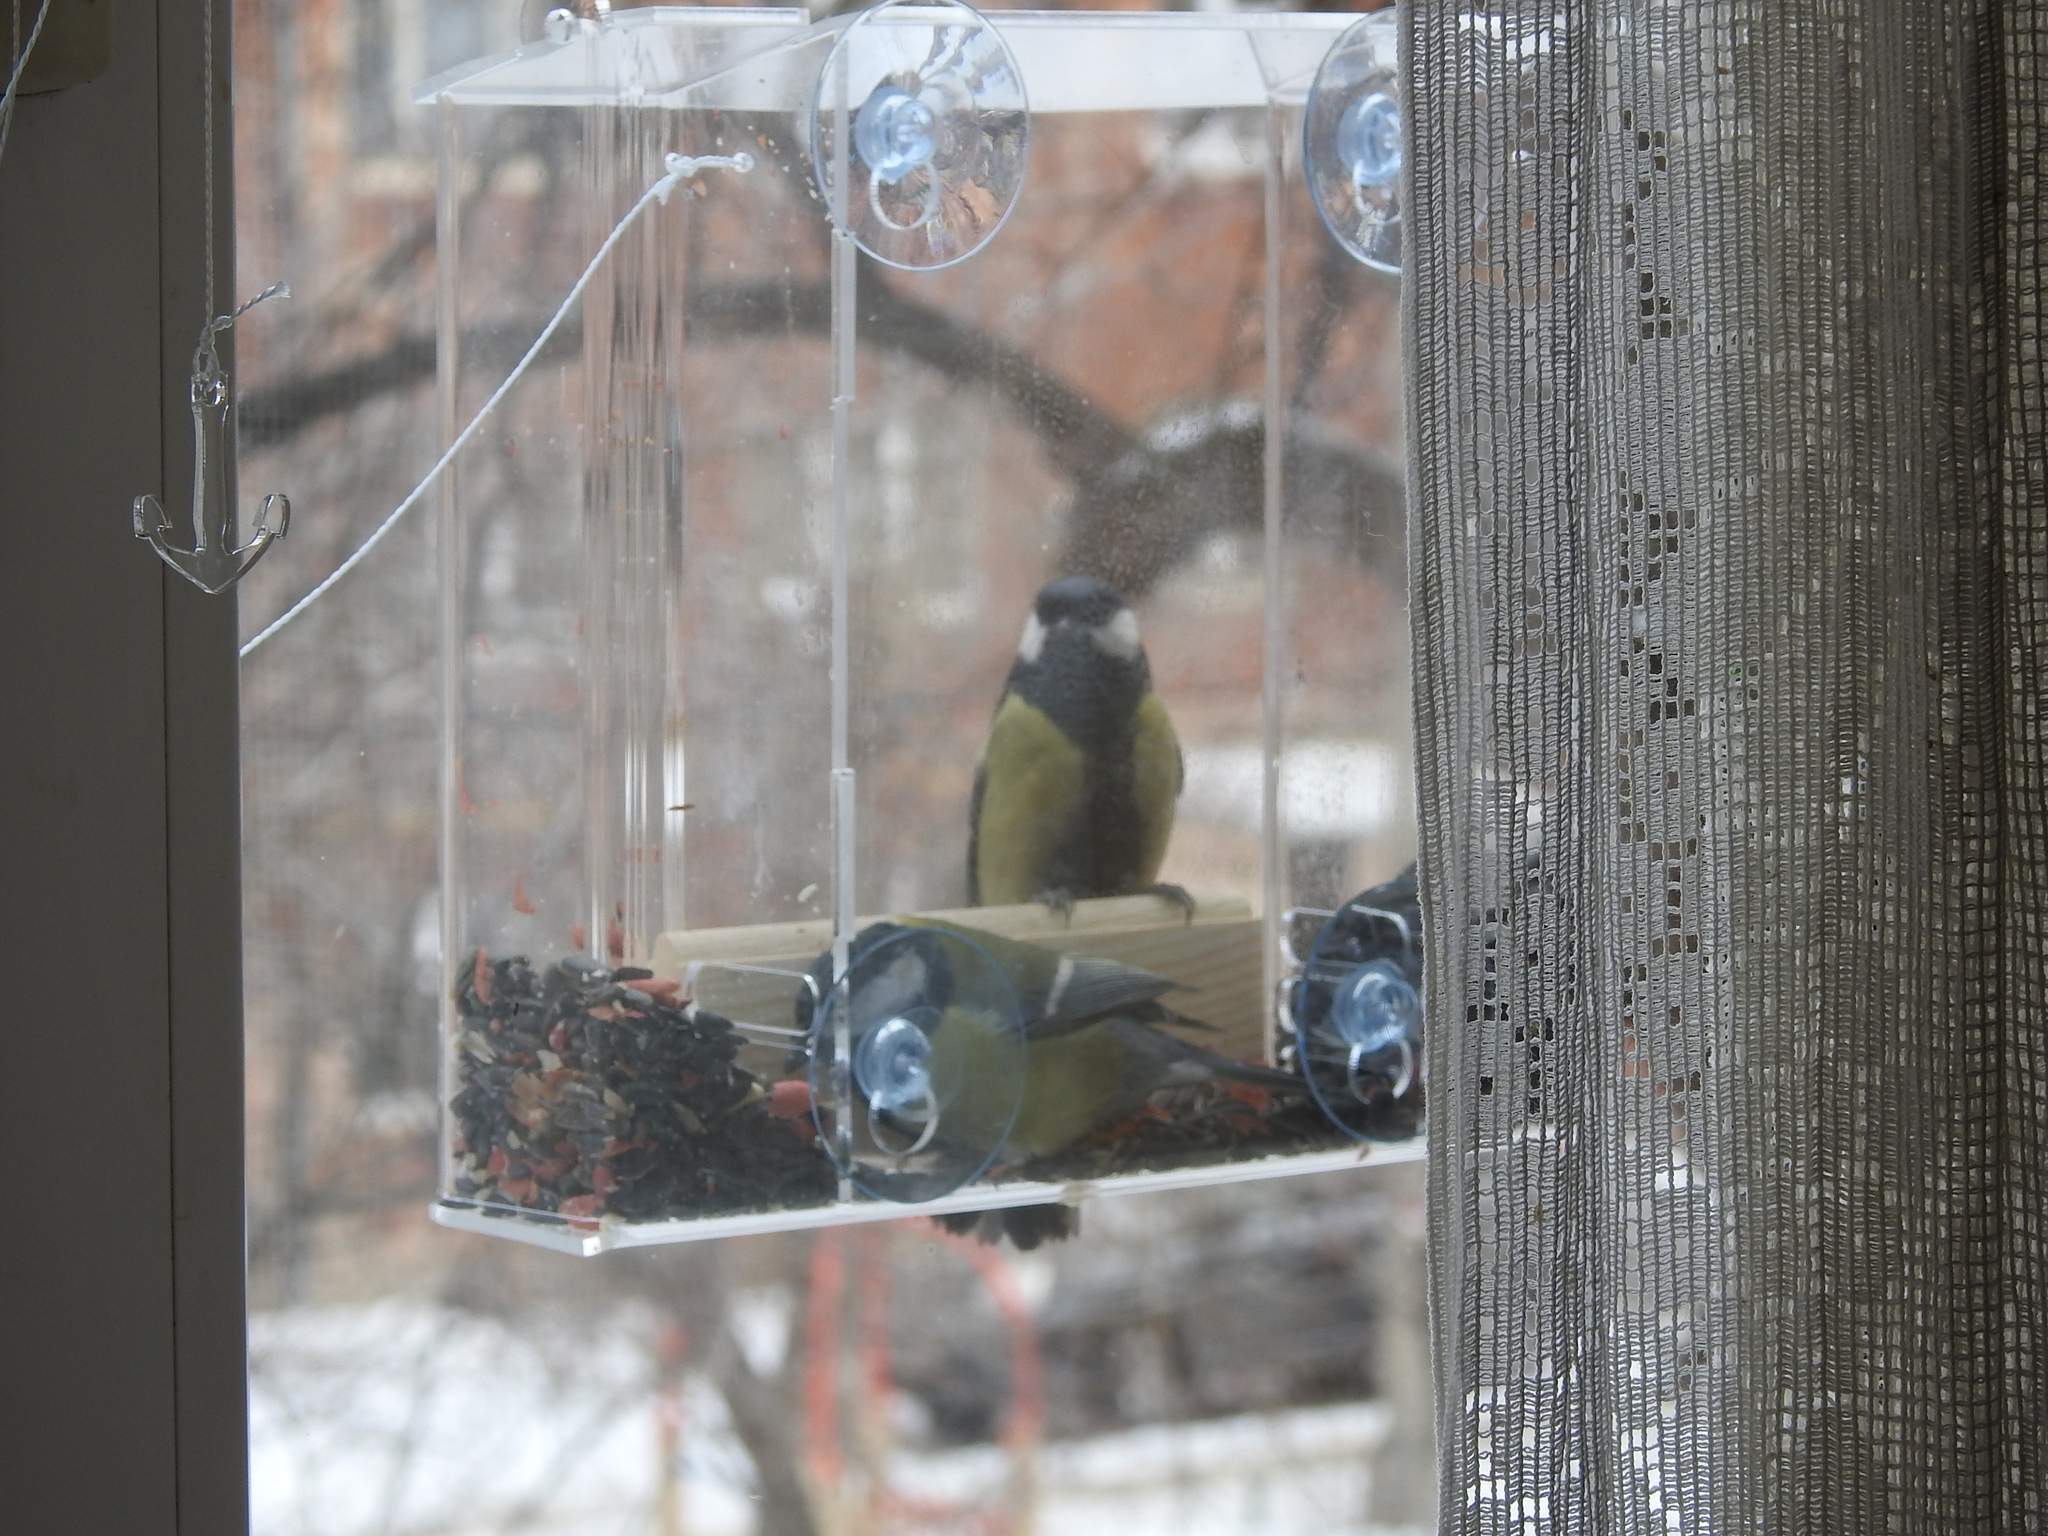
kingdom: Animalia
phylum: Chordata
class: Aves
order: Passeriformes
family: Paridae
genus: Parus
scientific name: Parus major
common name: Great tit
